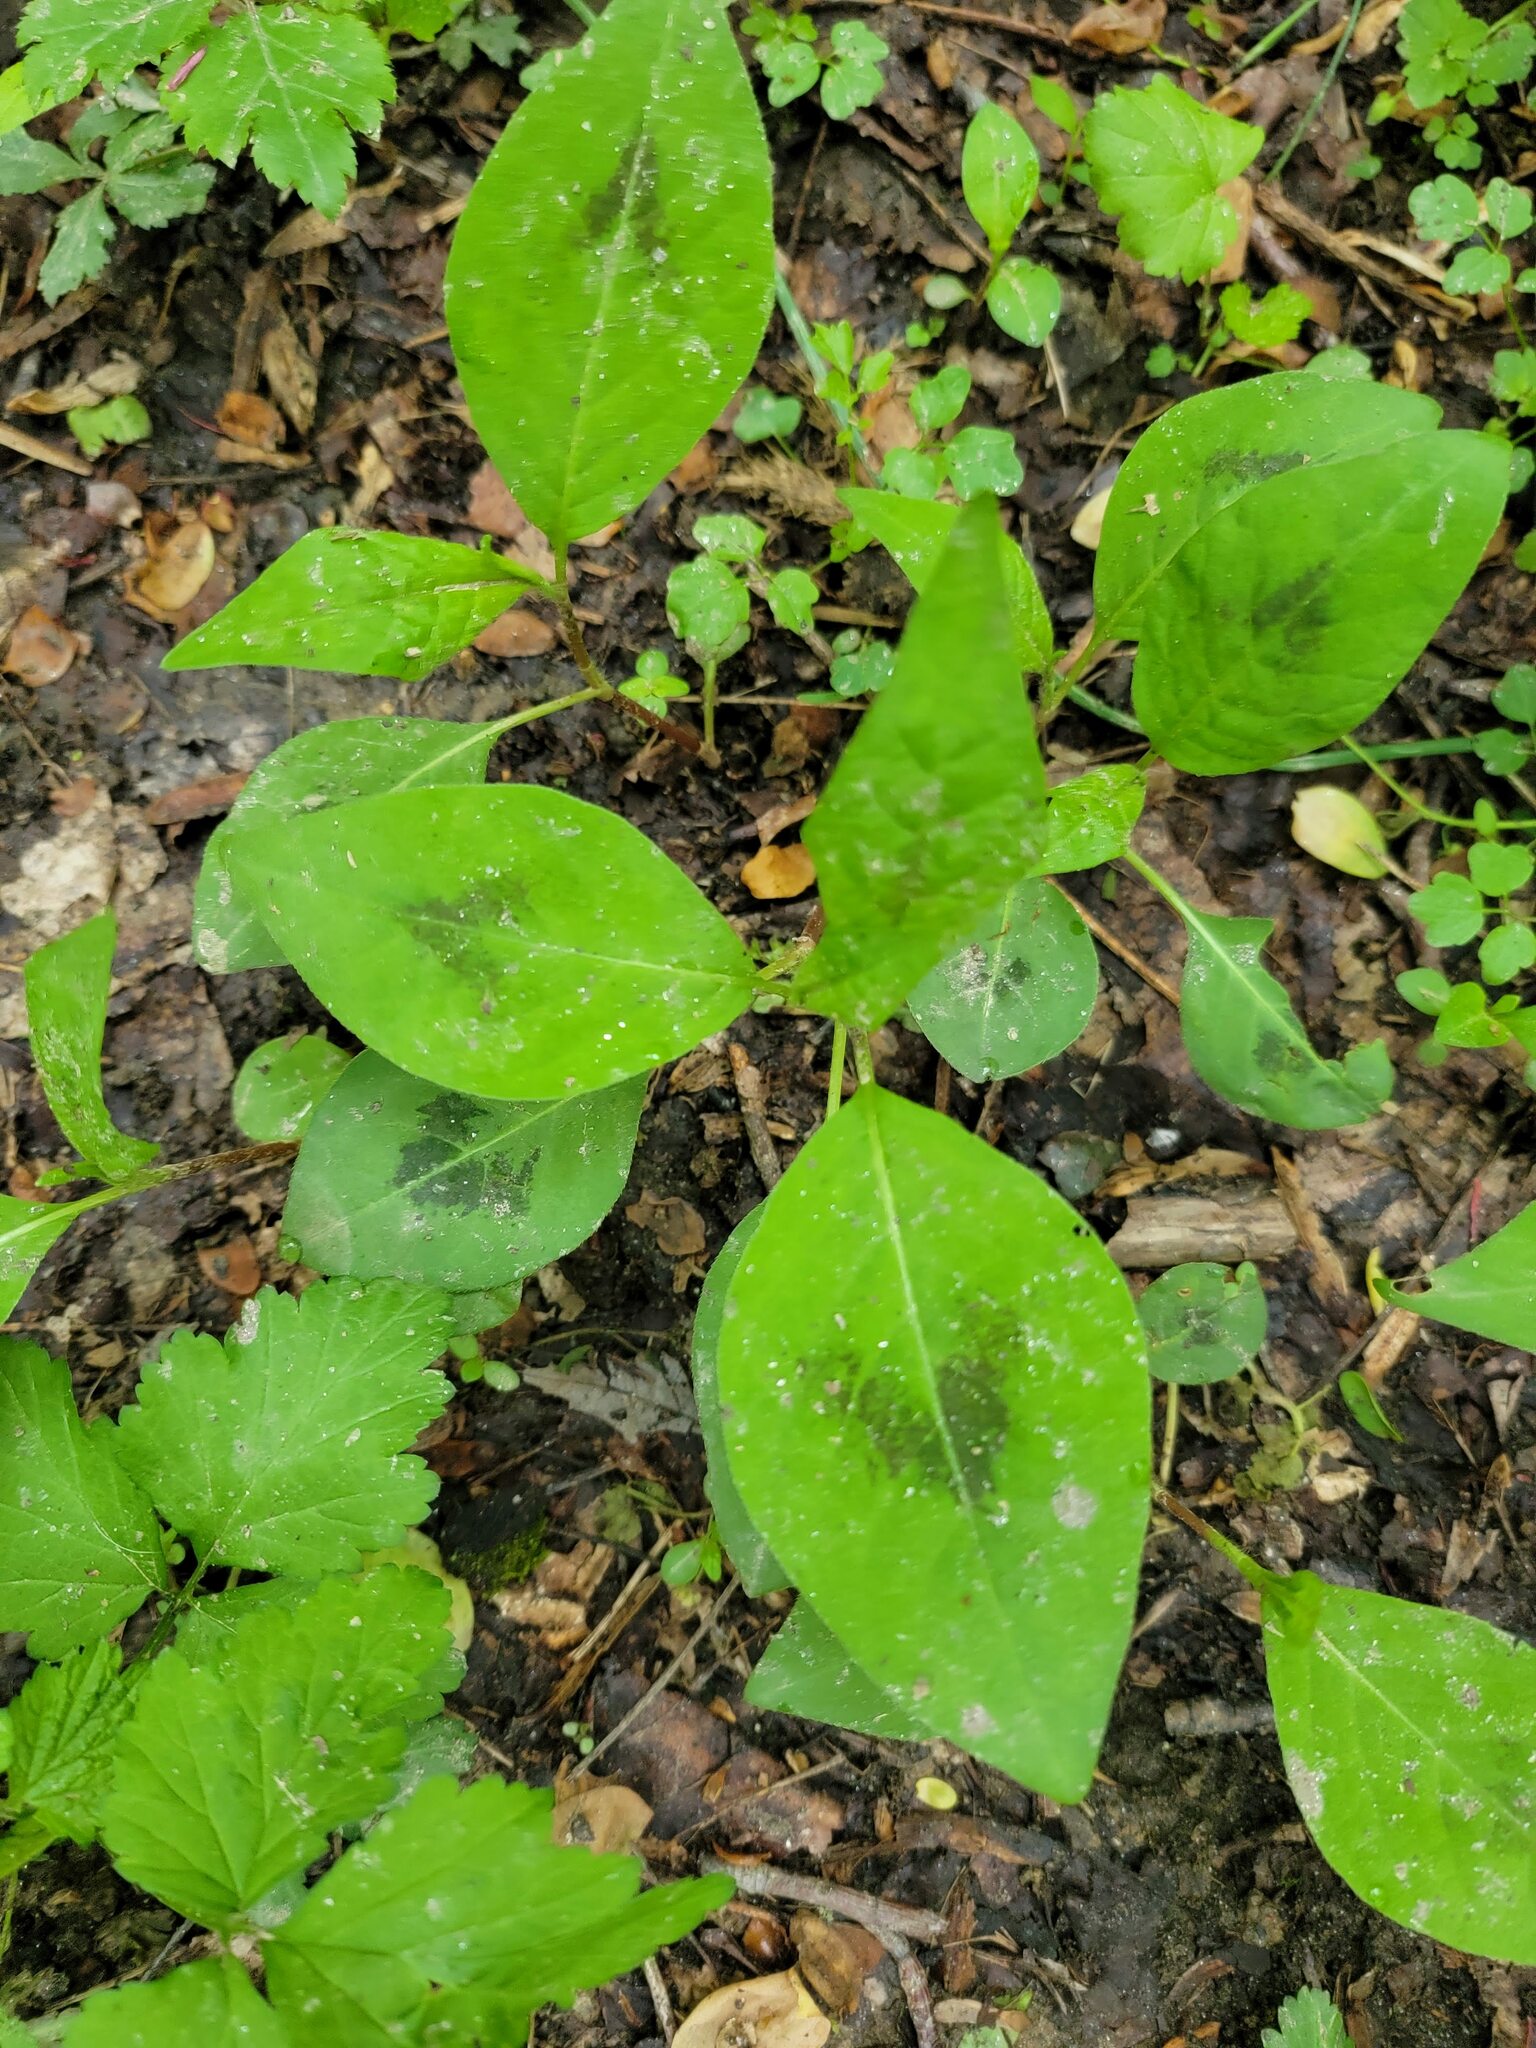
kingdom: Plantae
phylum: Tracheophyta
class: Magnoliopsida
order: Caryophyllales
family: Polygonaceae
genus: Persicaria
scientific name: Persicaria virginiana
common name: Jumpseed
